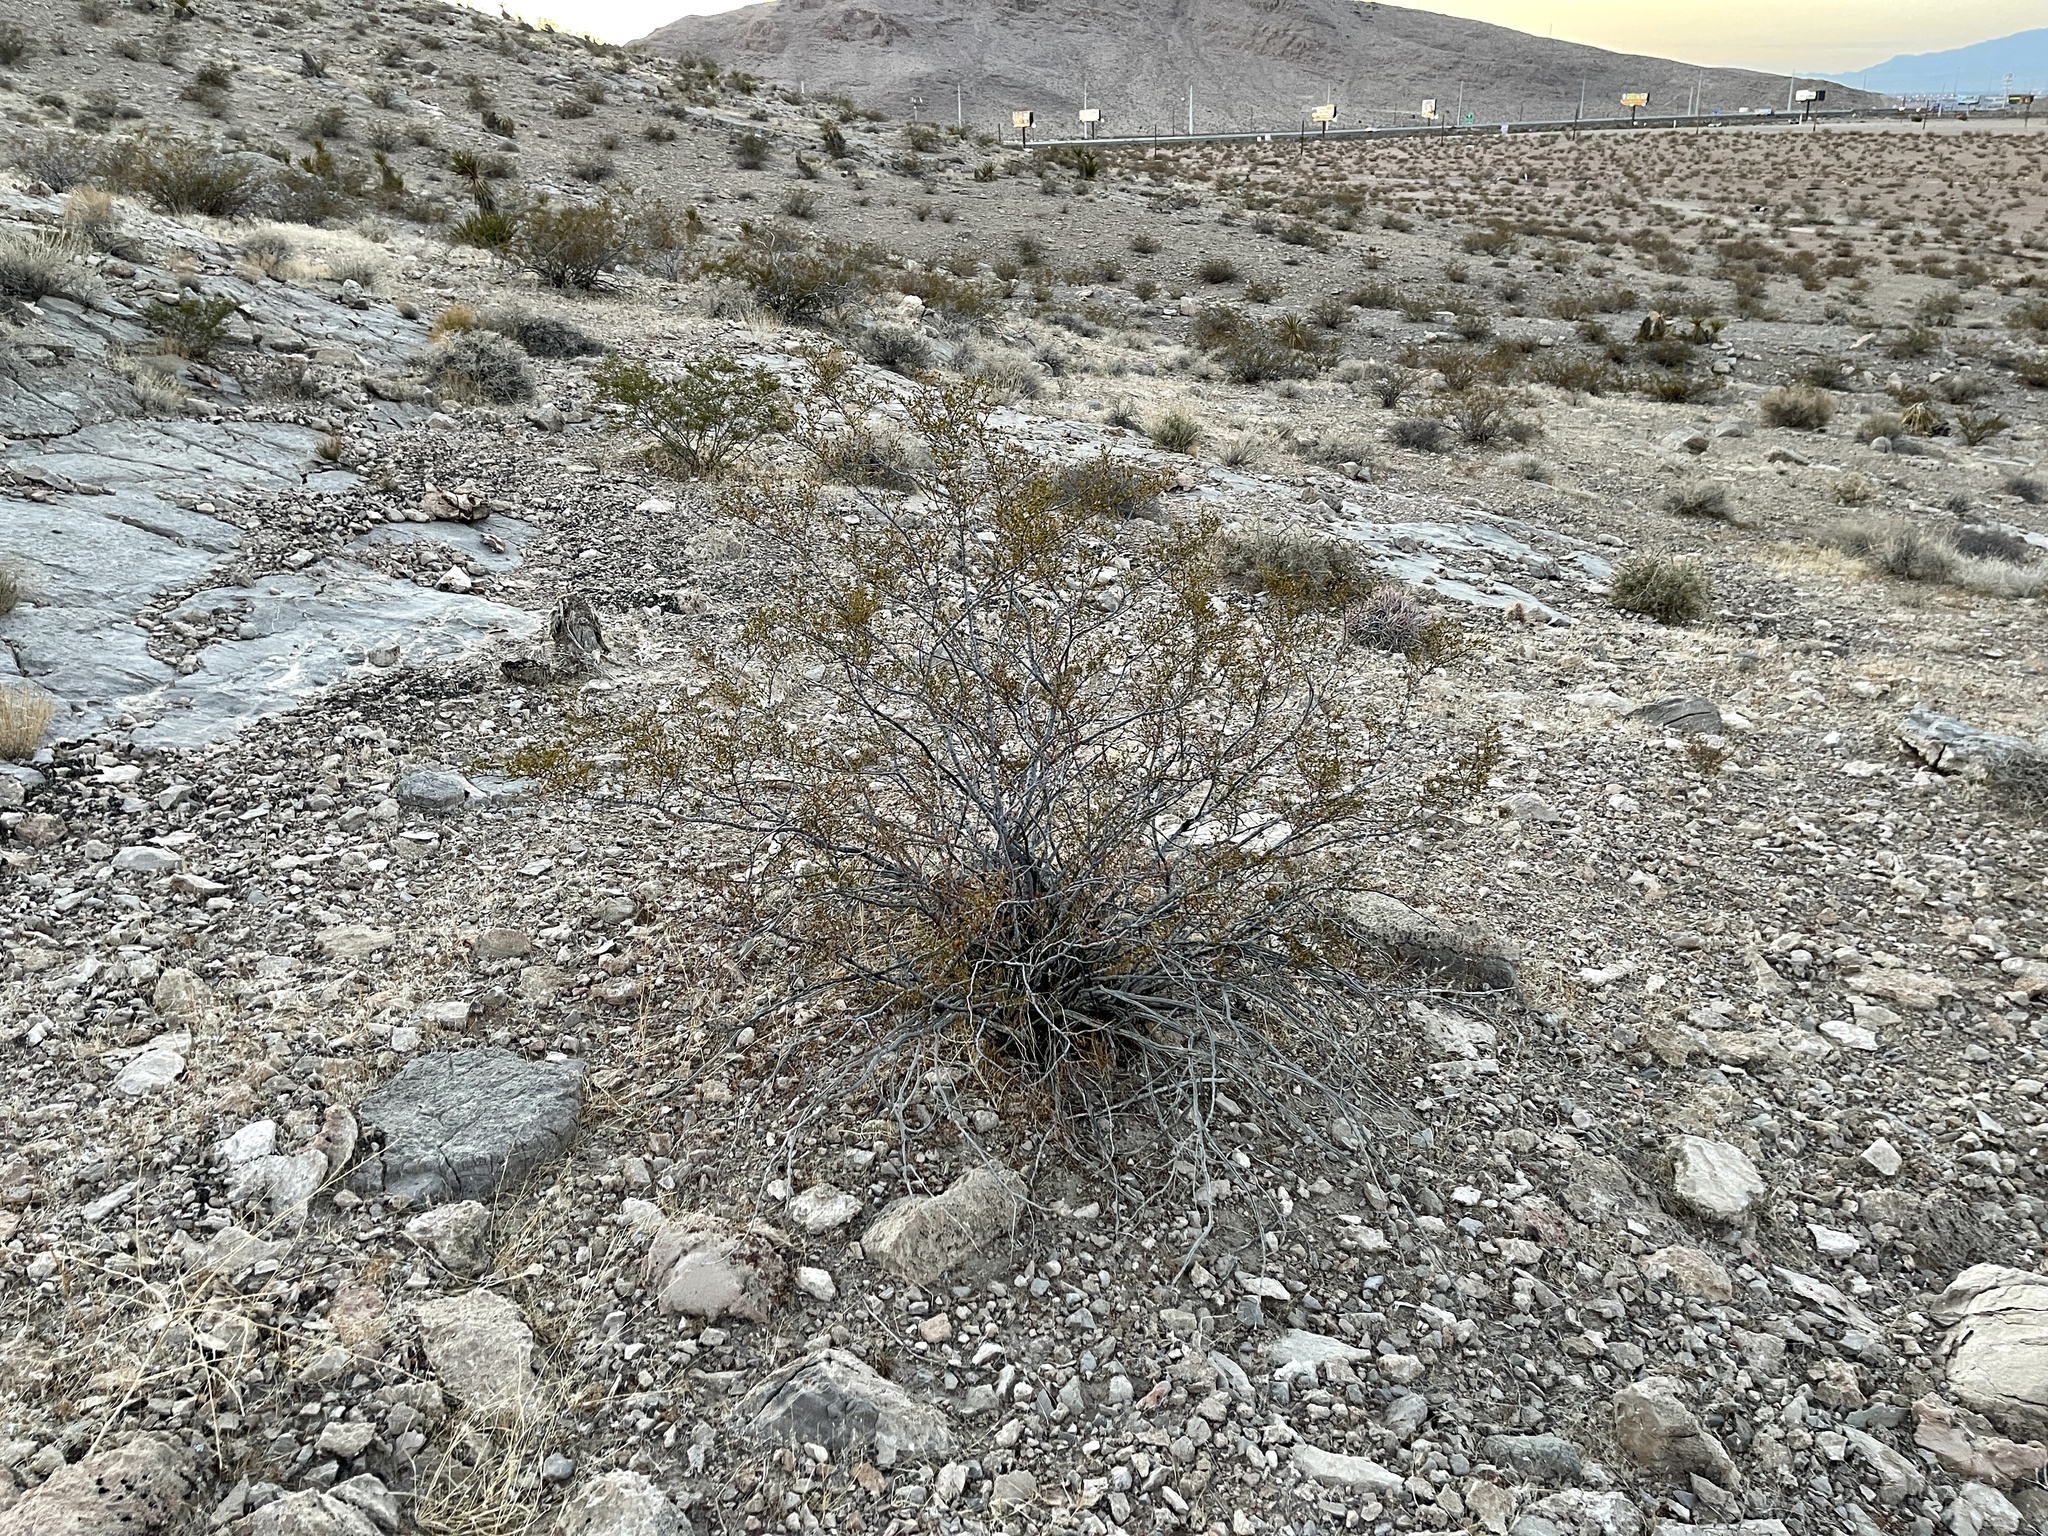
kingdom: Plantae
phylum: Tracheophyta
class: Magnoliopsida
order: Zygophyllales
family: Zygophyllaceae
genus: Larrea
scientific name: Larrea tridentata
